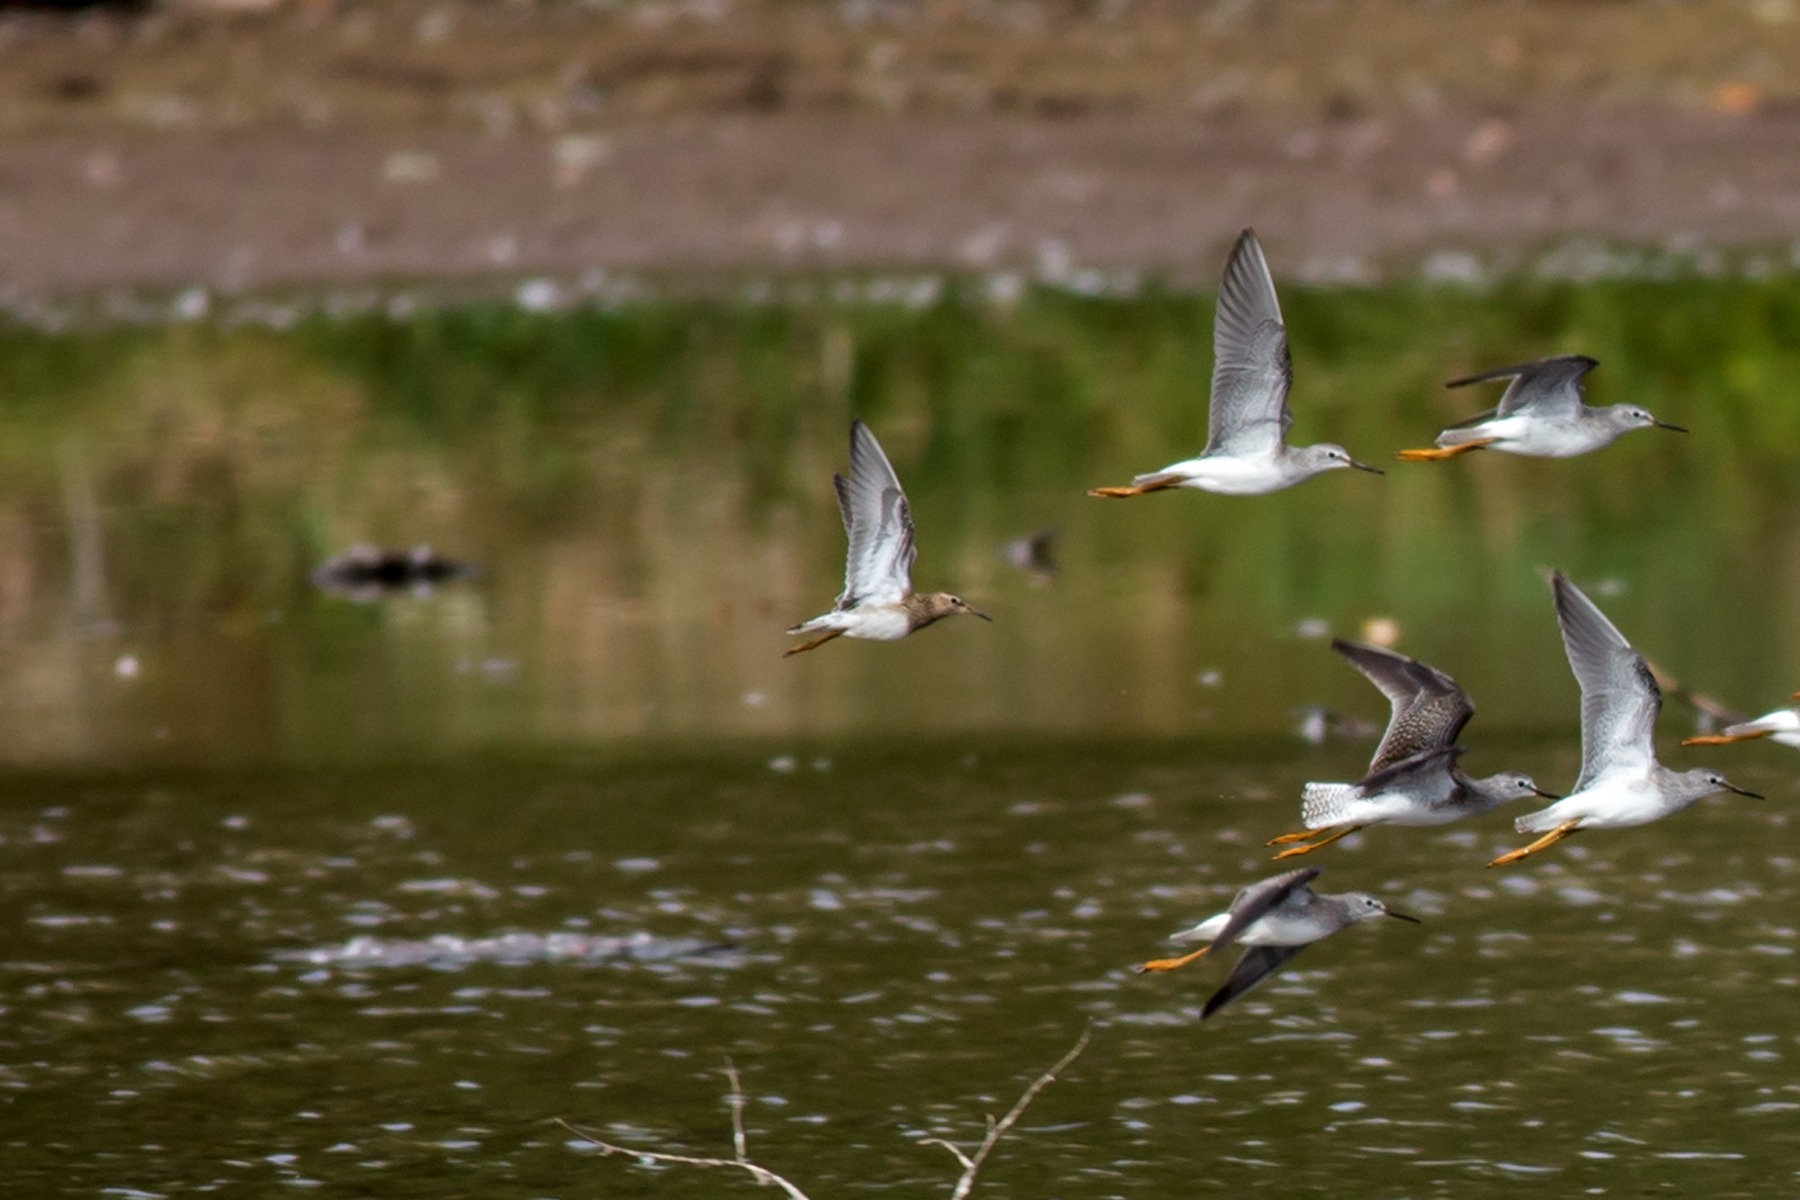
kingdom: Animalia
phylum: Chordata
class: Aves
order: Charadriiformes
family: Scolopacidae
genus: Calidris
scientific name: Calidris melanotos
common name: Pectoral sandpiper
